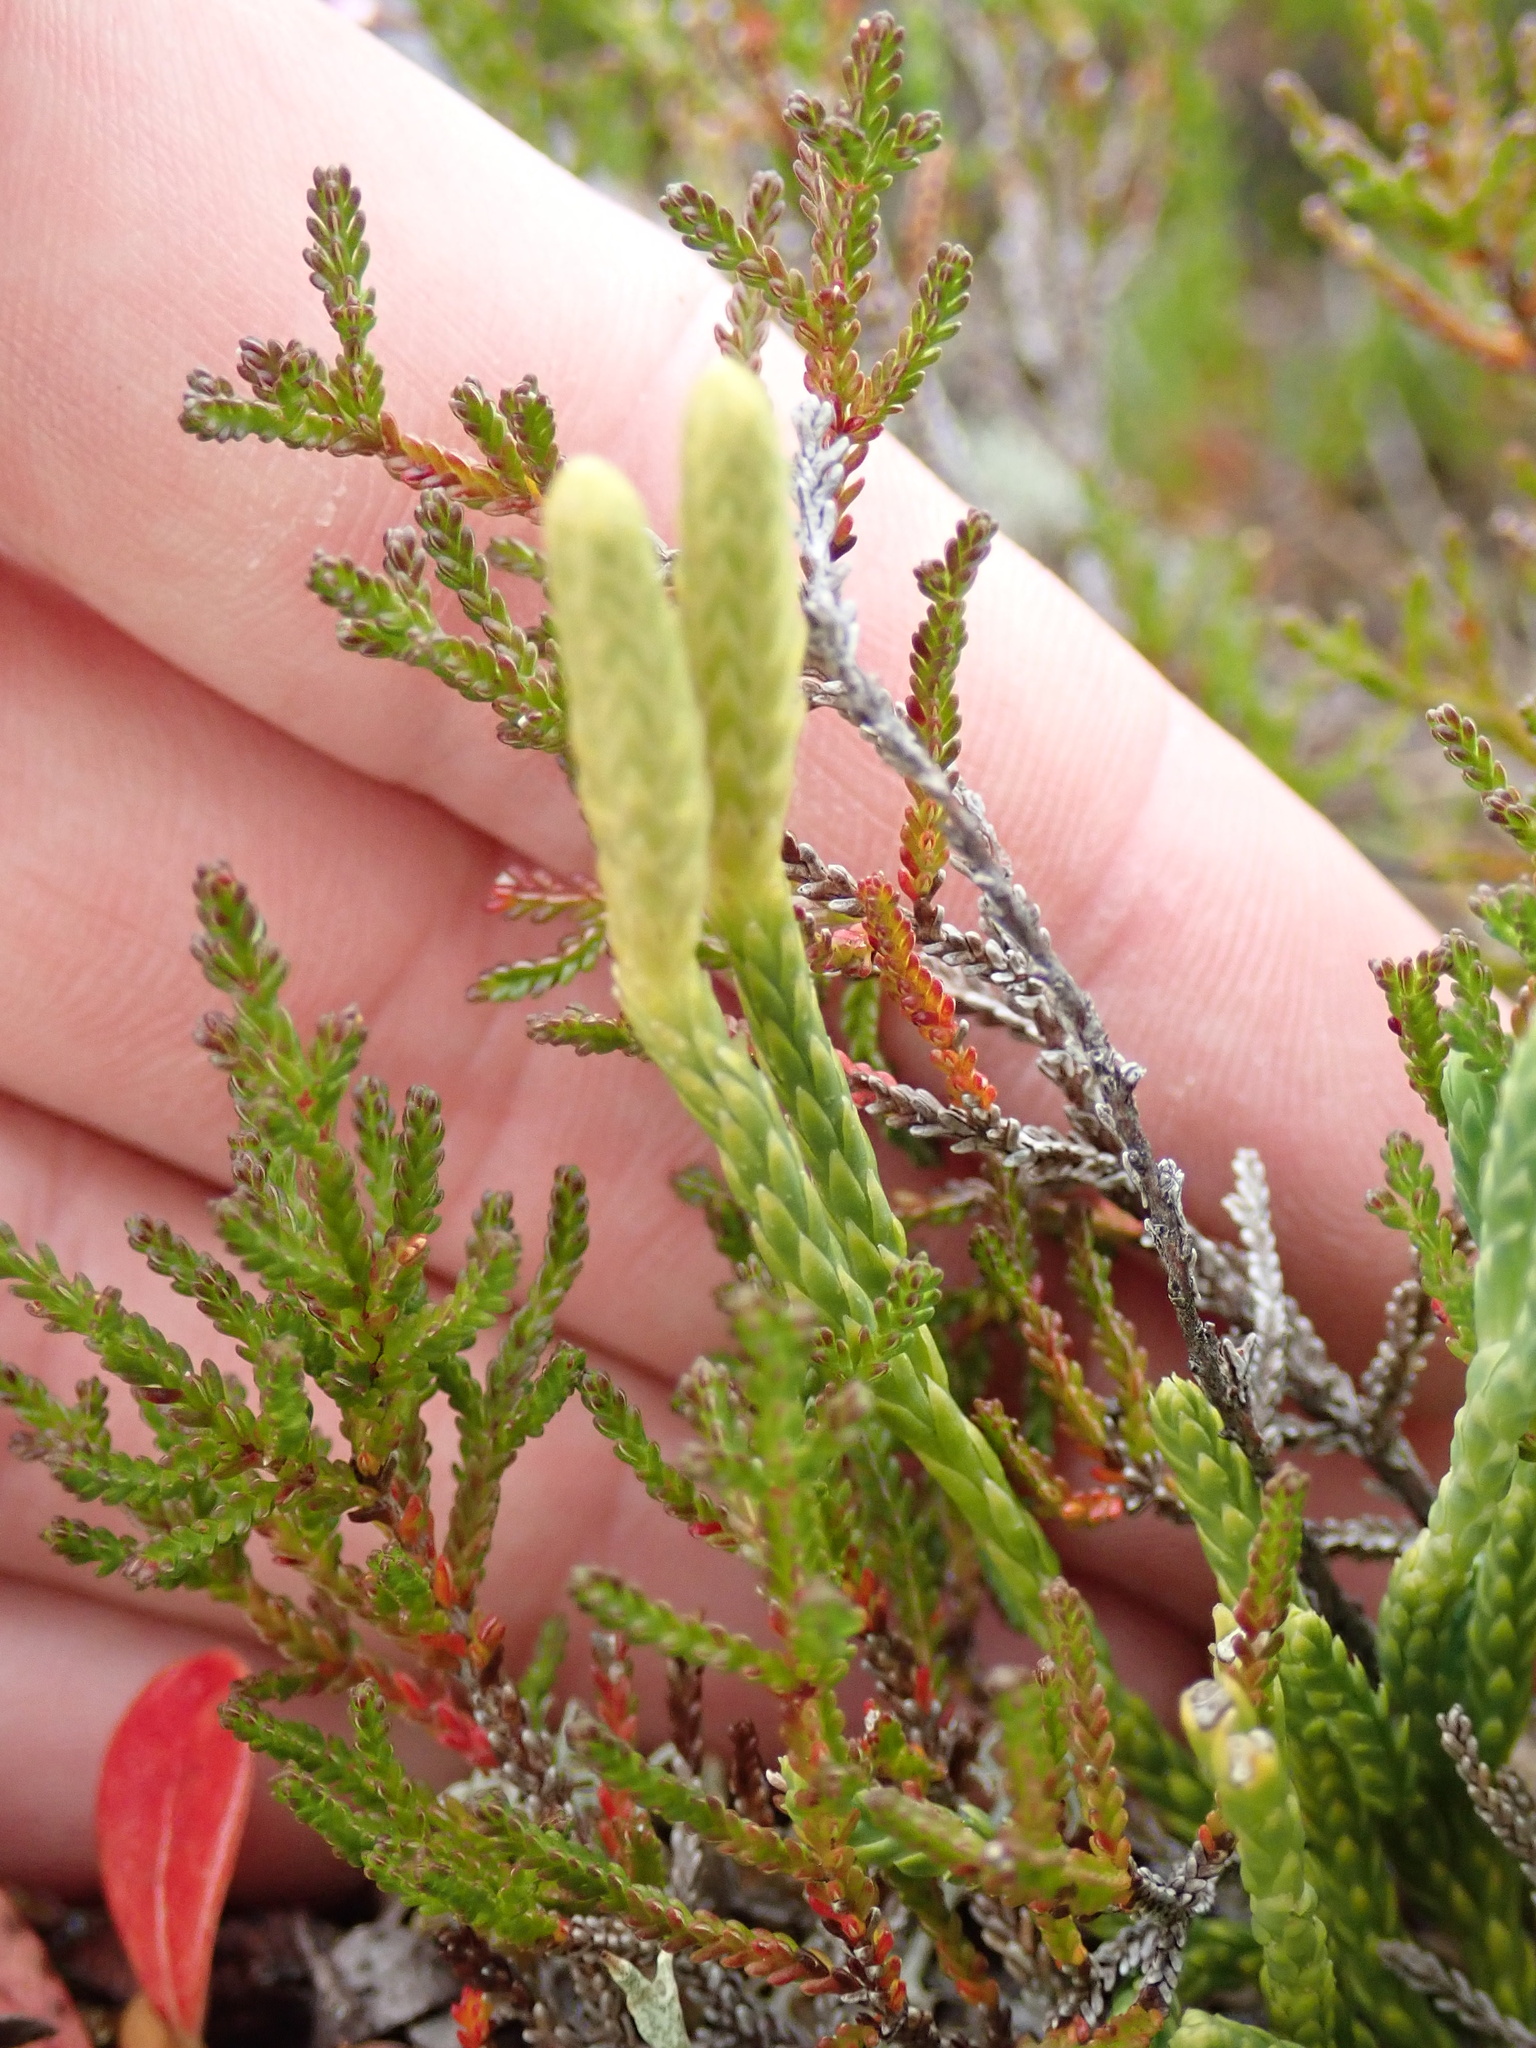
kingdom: Plantae
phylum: Tracheophyta
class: Lycopodiopsida
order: Lycopodiales
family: Lycopodiaceae
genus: Diphasiastrum
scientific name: Diphasiastrum alpinum
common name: Alpine clubmoss
